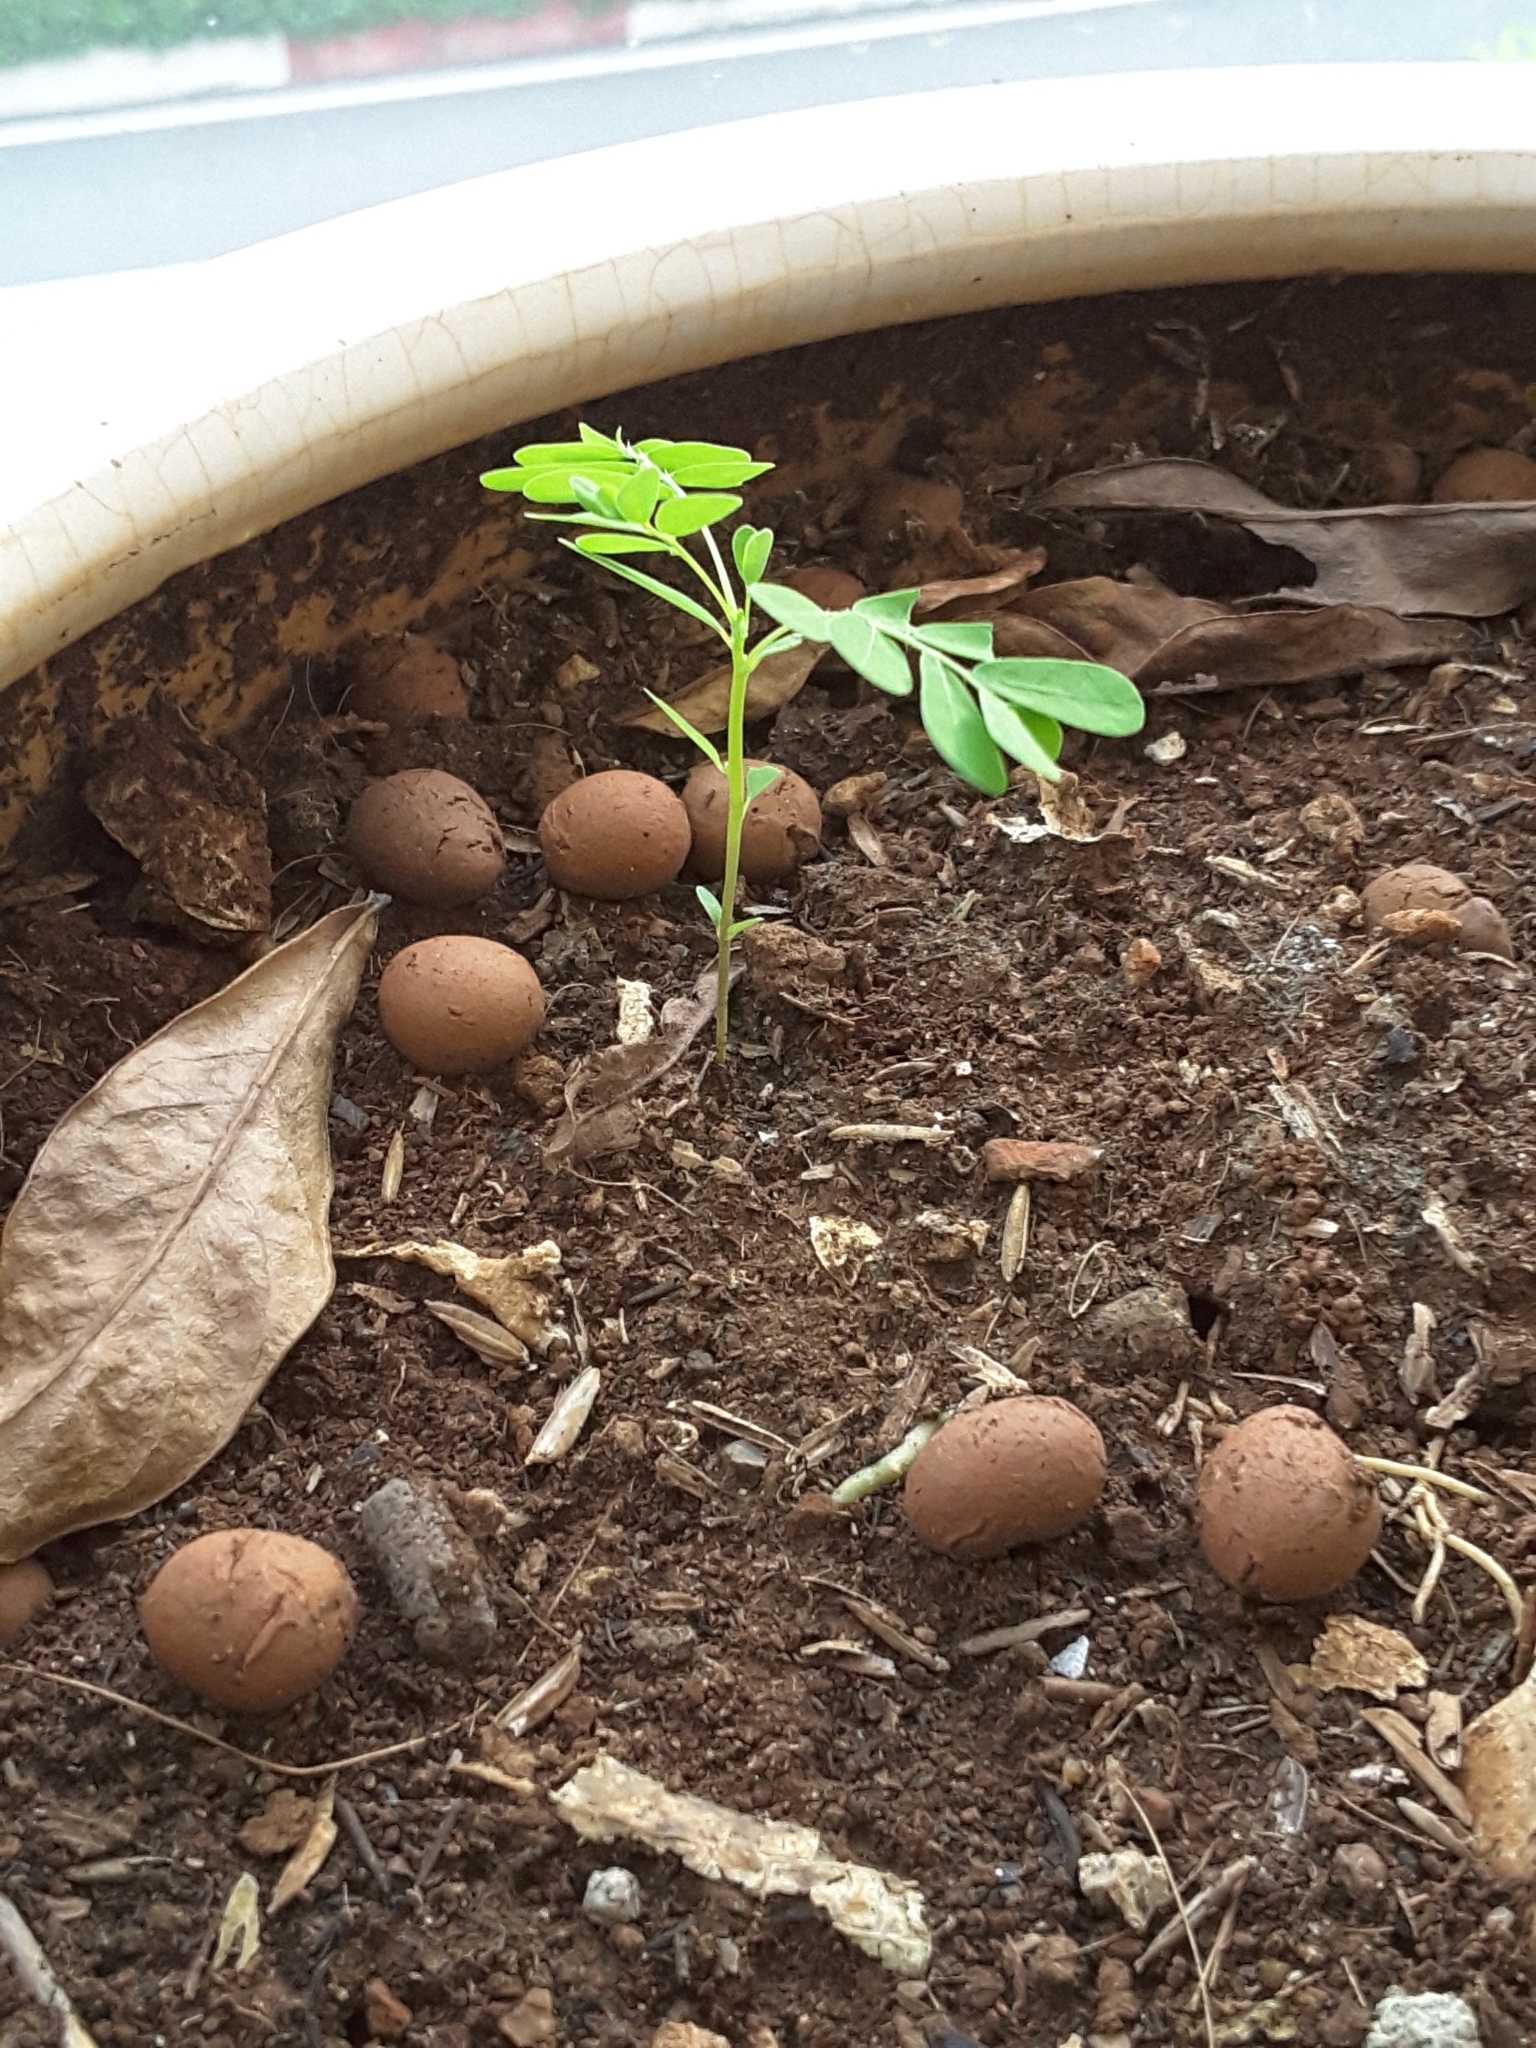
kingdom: Plantae
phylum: Tracheophyta
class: Magnoliopsida
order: Malpighiales
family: Phyllanthaceae
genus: Phyllanthus
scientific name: Phyllanthus urinaria
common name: Chamber bitter
